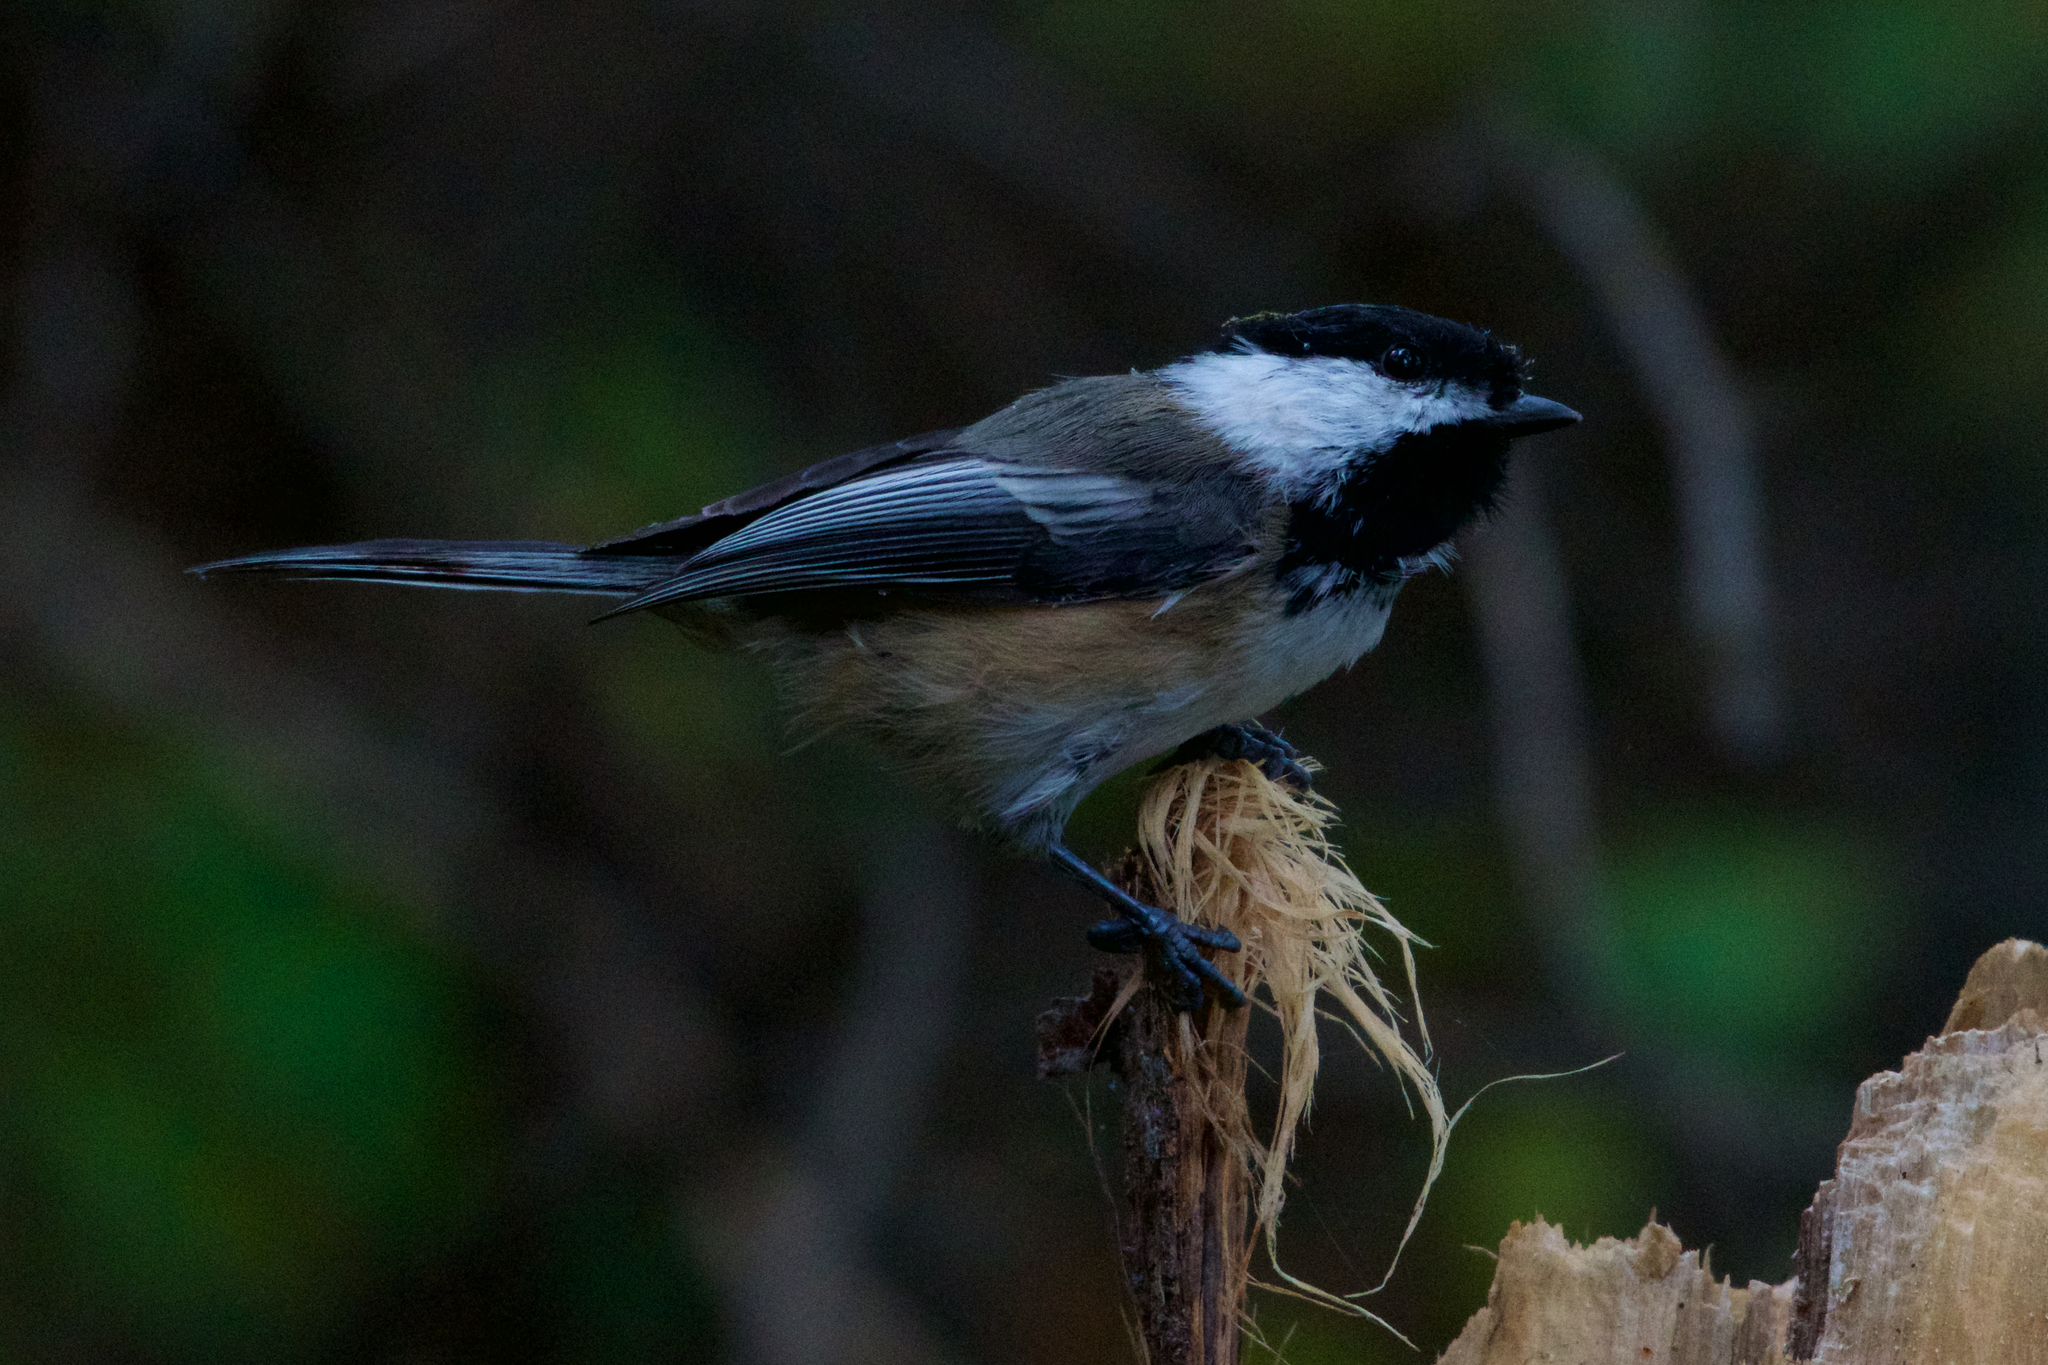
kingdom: Animalia
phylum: Chordata
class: Aves
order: Passeriformes
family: Paridae
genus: Poecile
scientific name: Poecile atricapillus
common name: Black-capped chickadee
